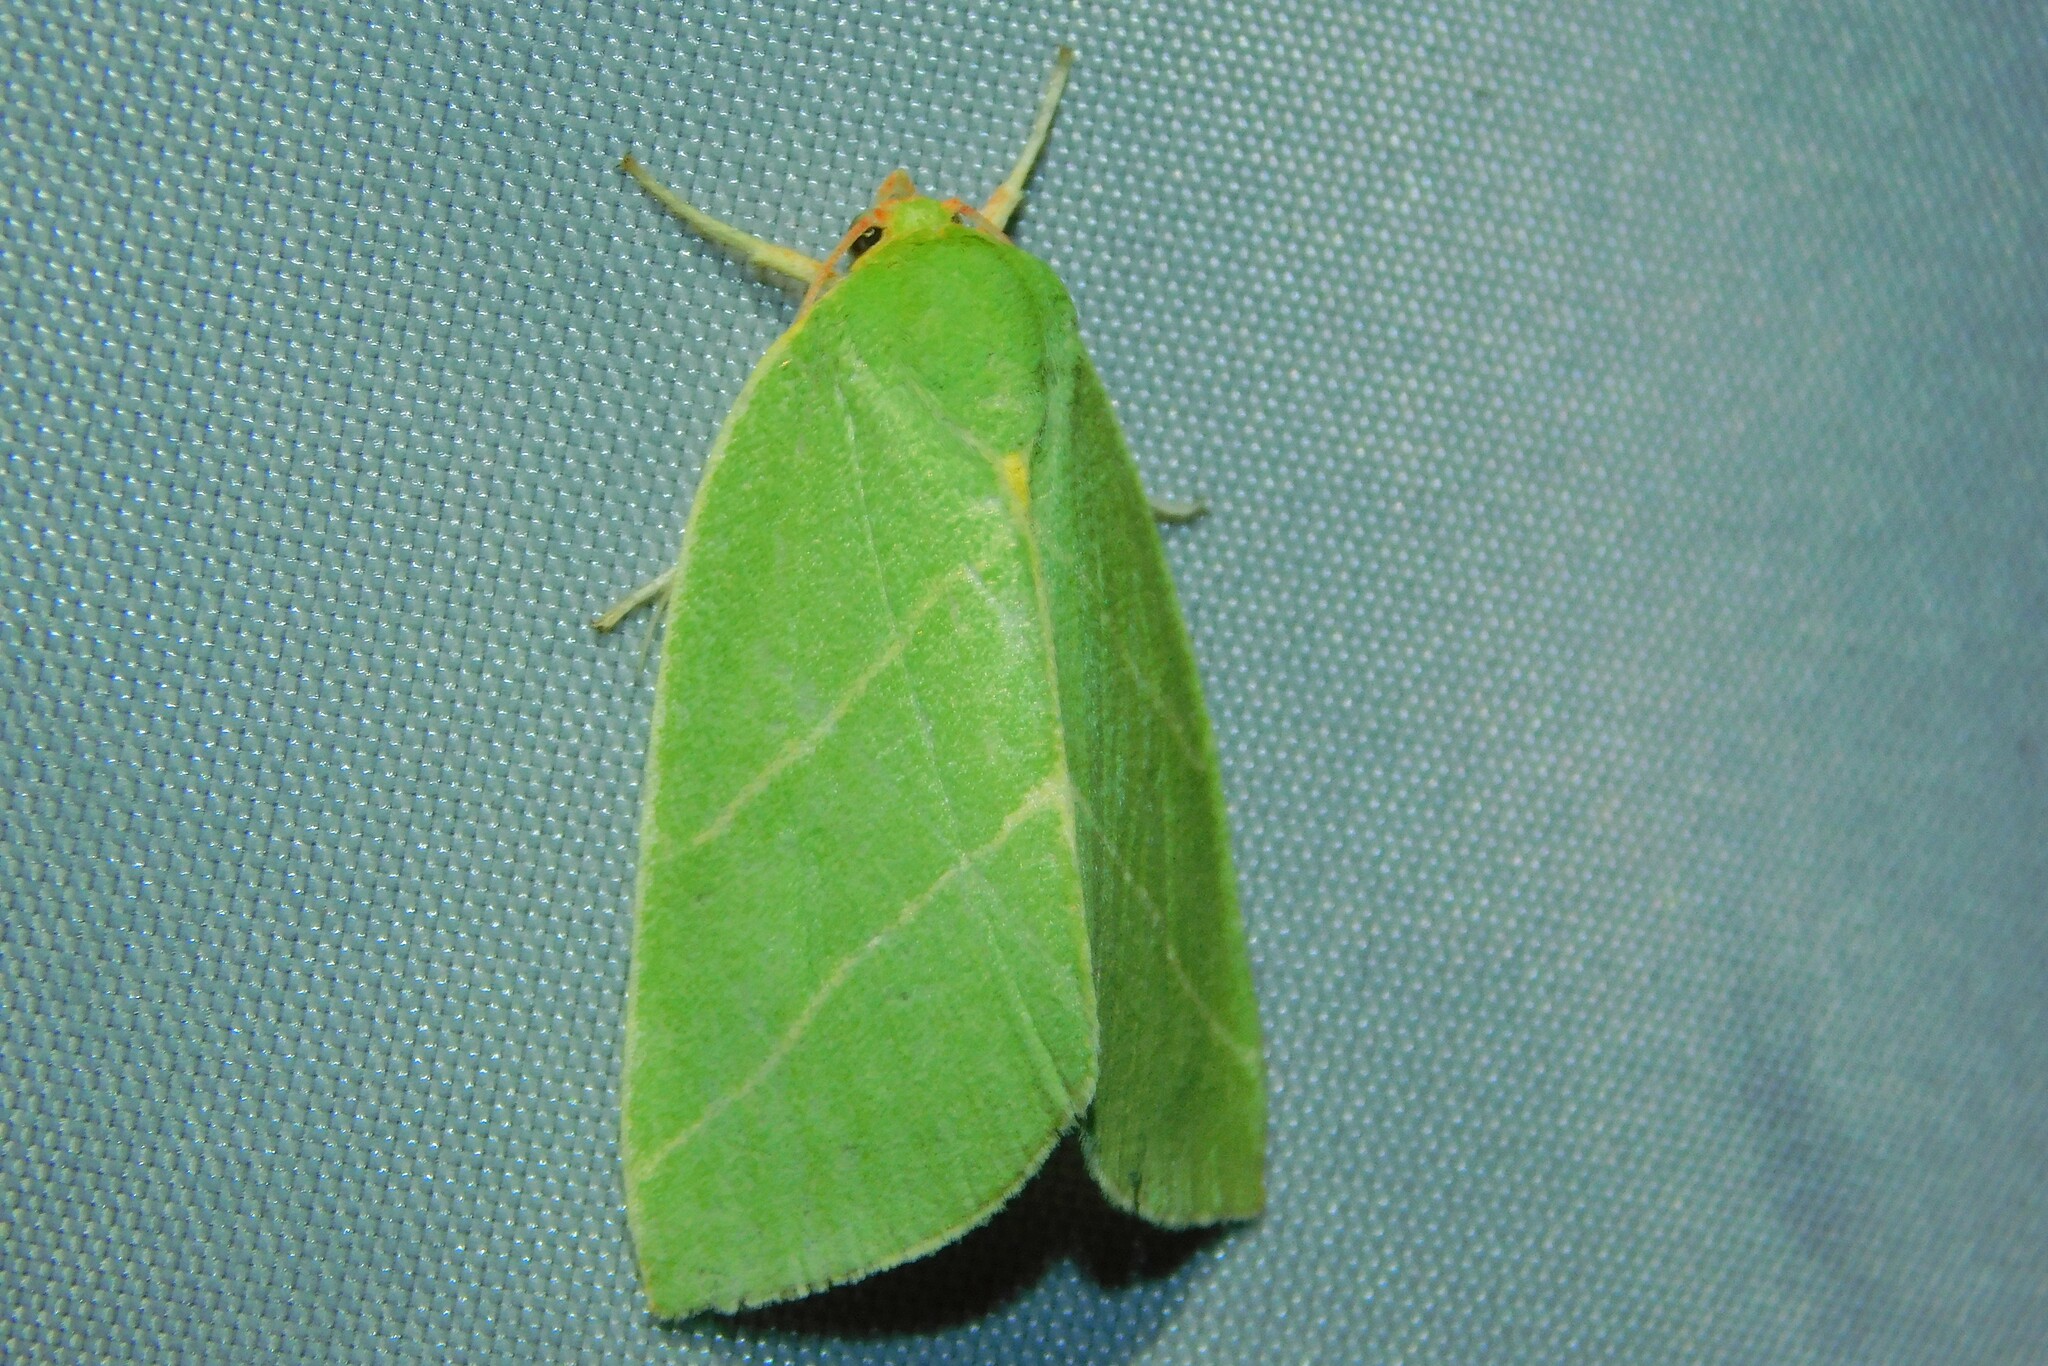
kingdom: Animalia
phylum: Arthropoda
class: Insecta
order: Lepidoptera
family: Nolidae
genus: Bena
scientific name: Bena bicolorana
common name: Scarce silver-lines
